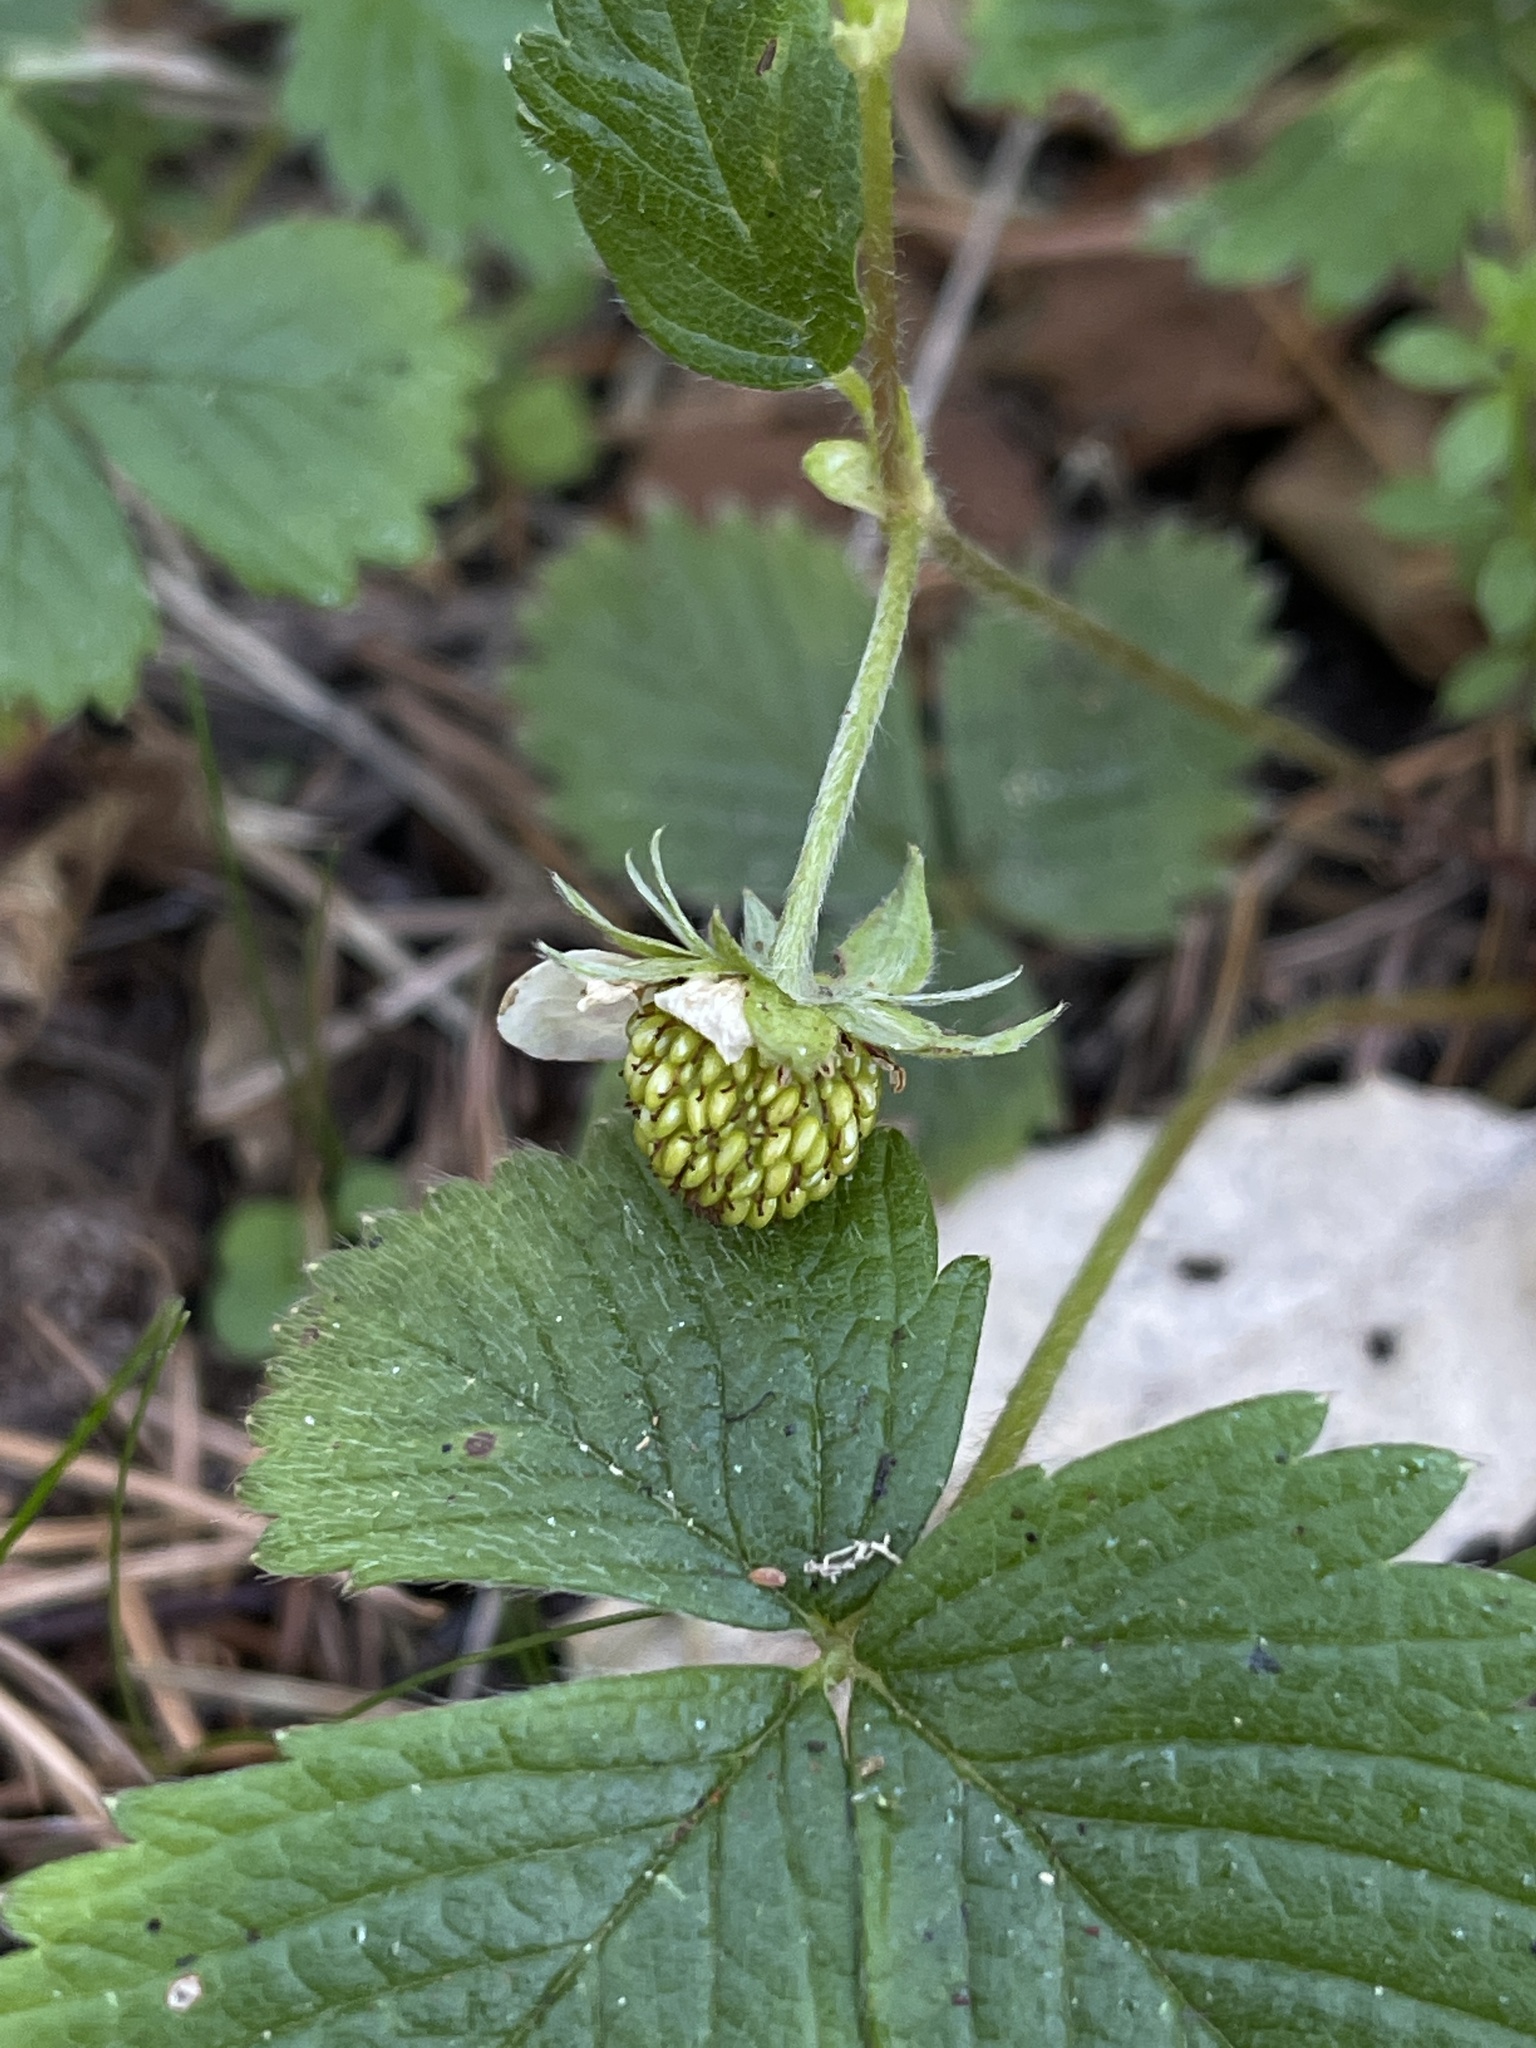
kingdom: Plantae
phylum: Tracheophyta
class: Magnoliopsida
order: Rosales
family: Rosaceae
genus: Fragaria
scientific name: Fragaria vesca
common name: Wild strawberry
